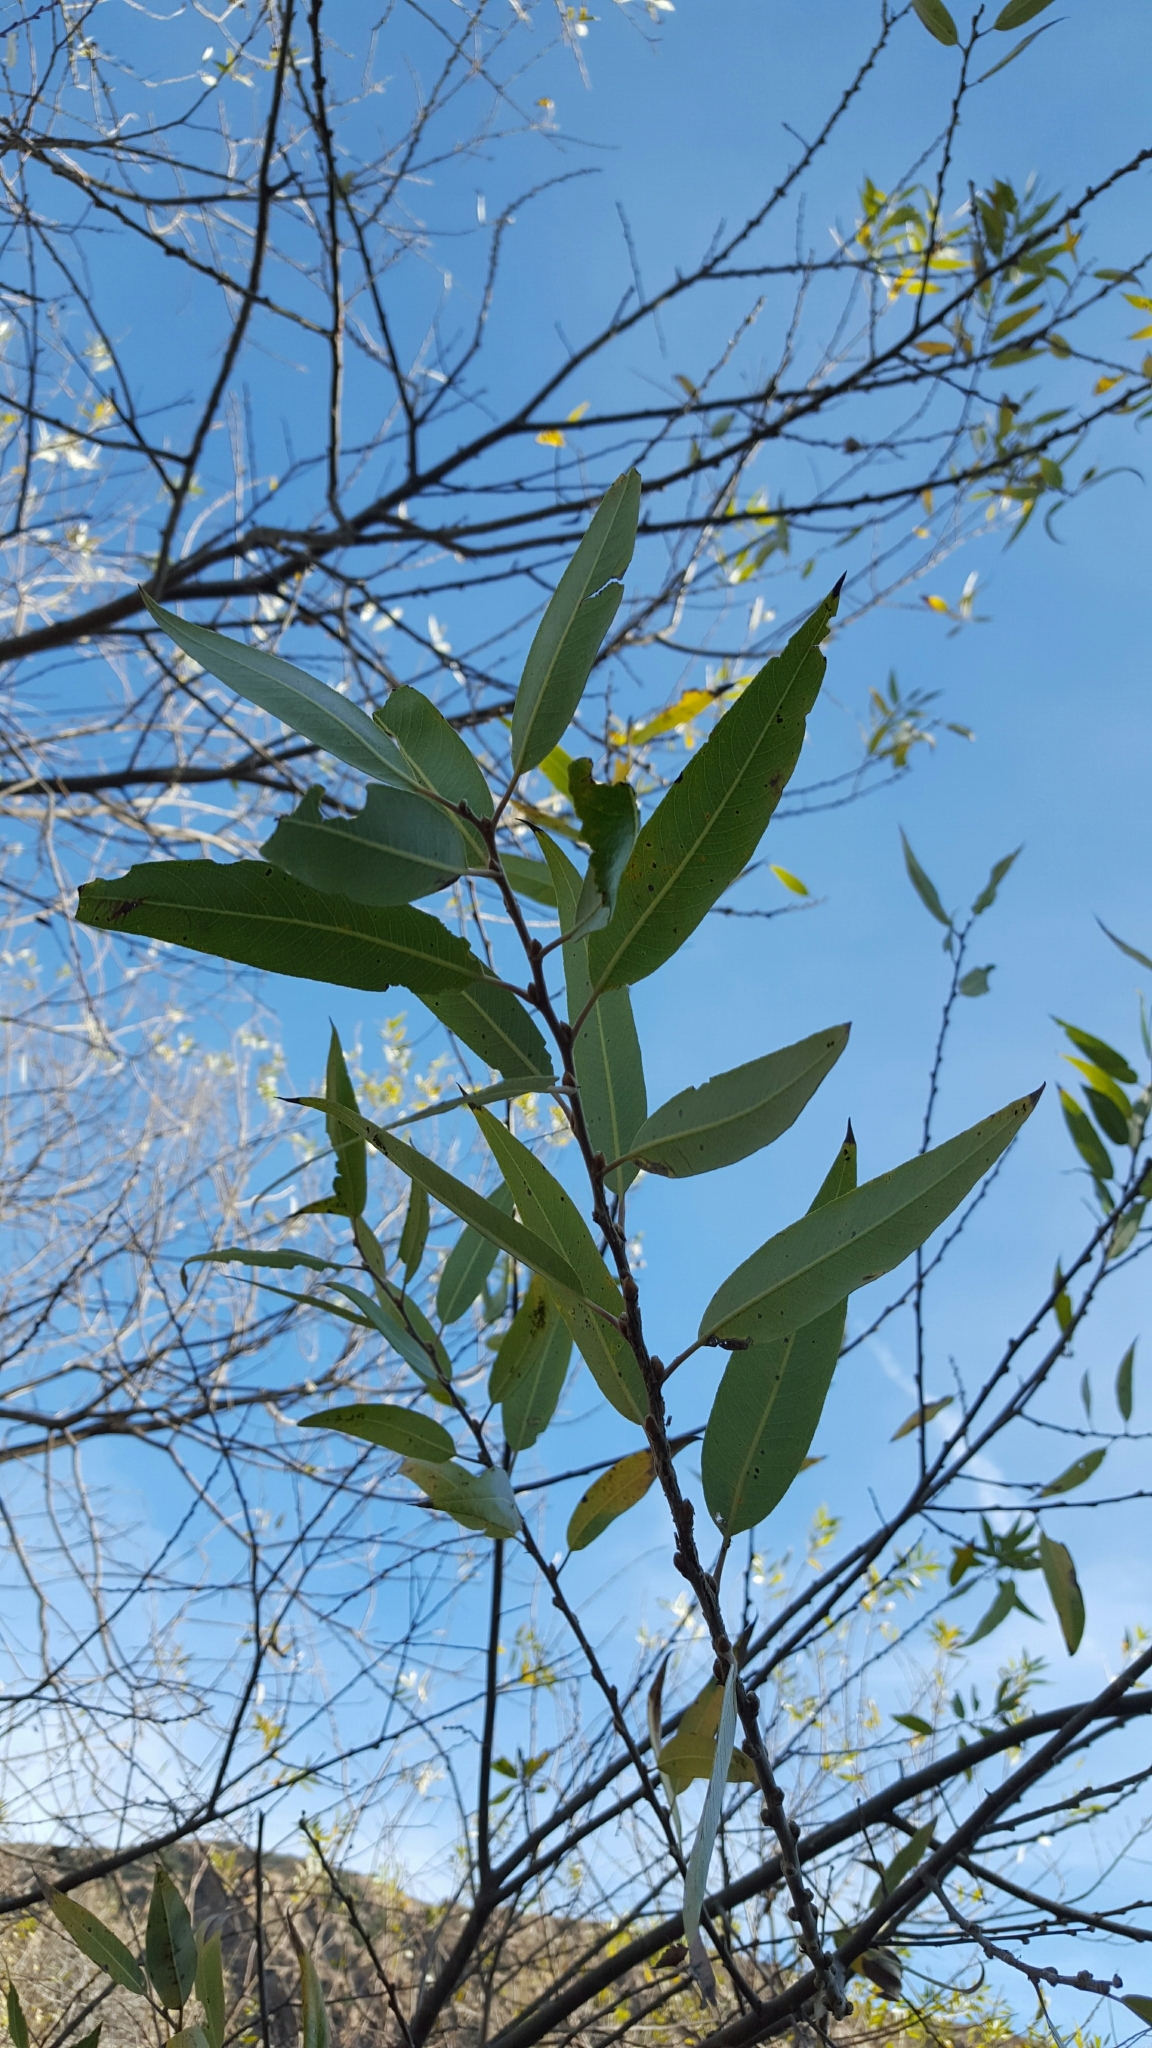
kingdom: Plantae
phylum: Tracheophyta
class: Magnoliopsida
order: Malpighiales
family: Salicaceae
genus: Salix
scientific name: Salix laevigata
